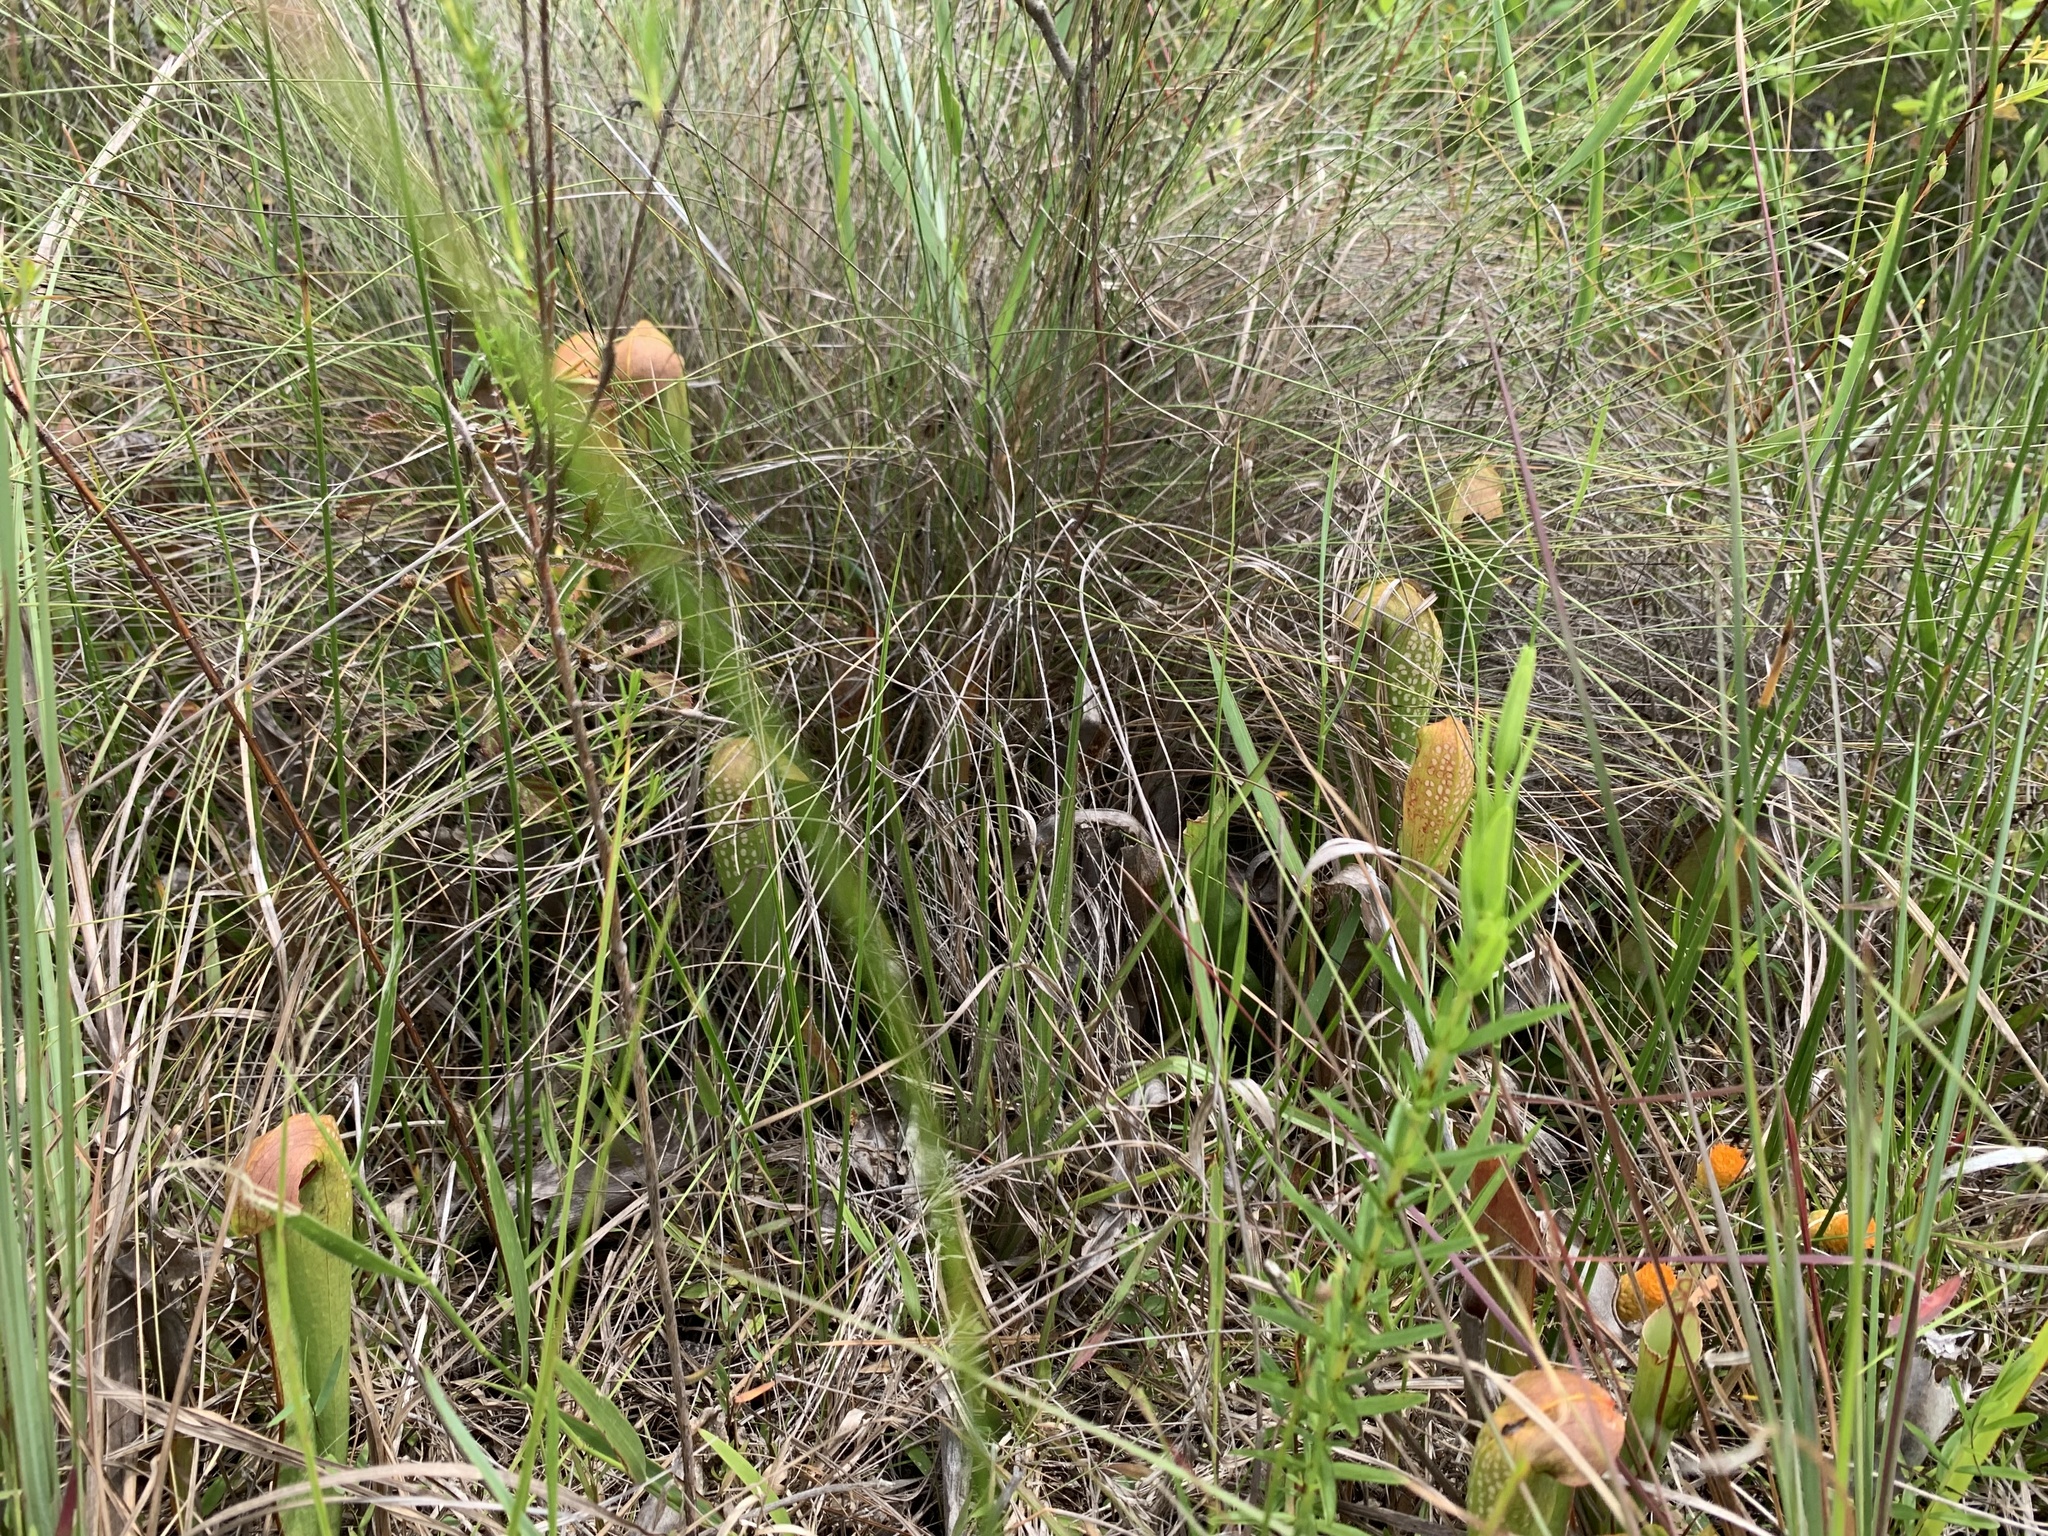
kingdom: Plantae
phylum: Tracheophyta
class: Magnoliopsida
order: Ericales
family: Sarraceniaceae
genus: Sarracenia
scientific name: Sarracenia minor
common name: Rainhat-trumpet
